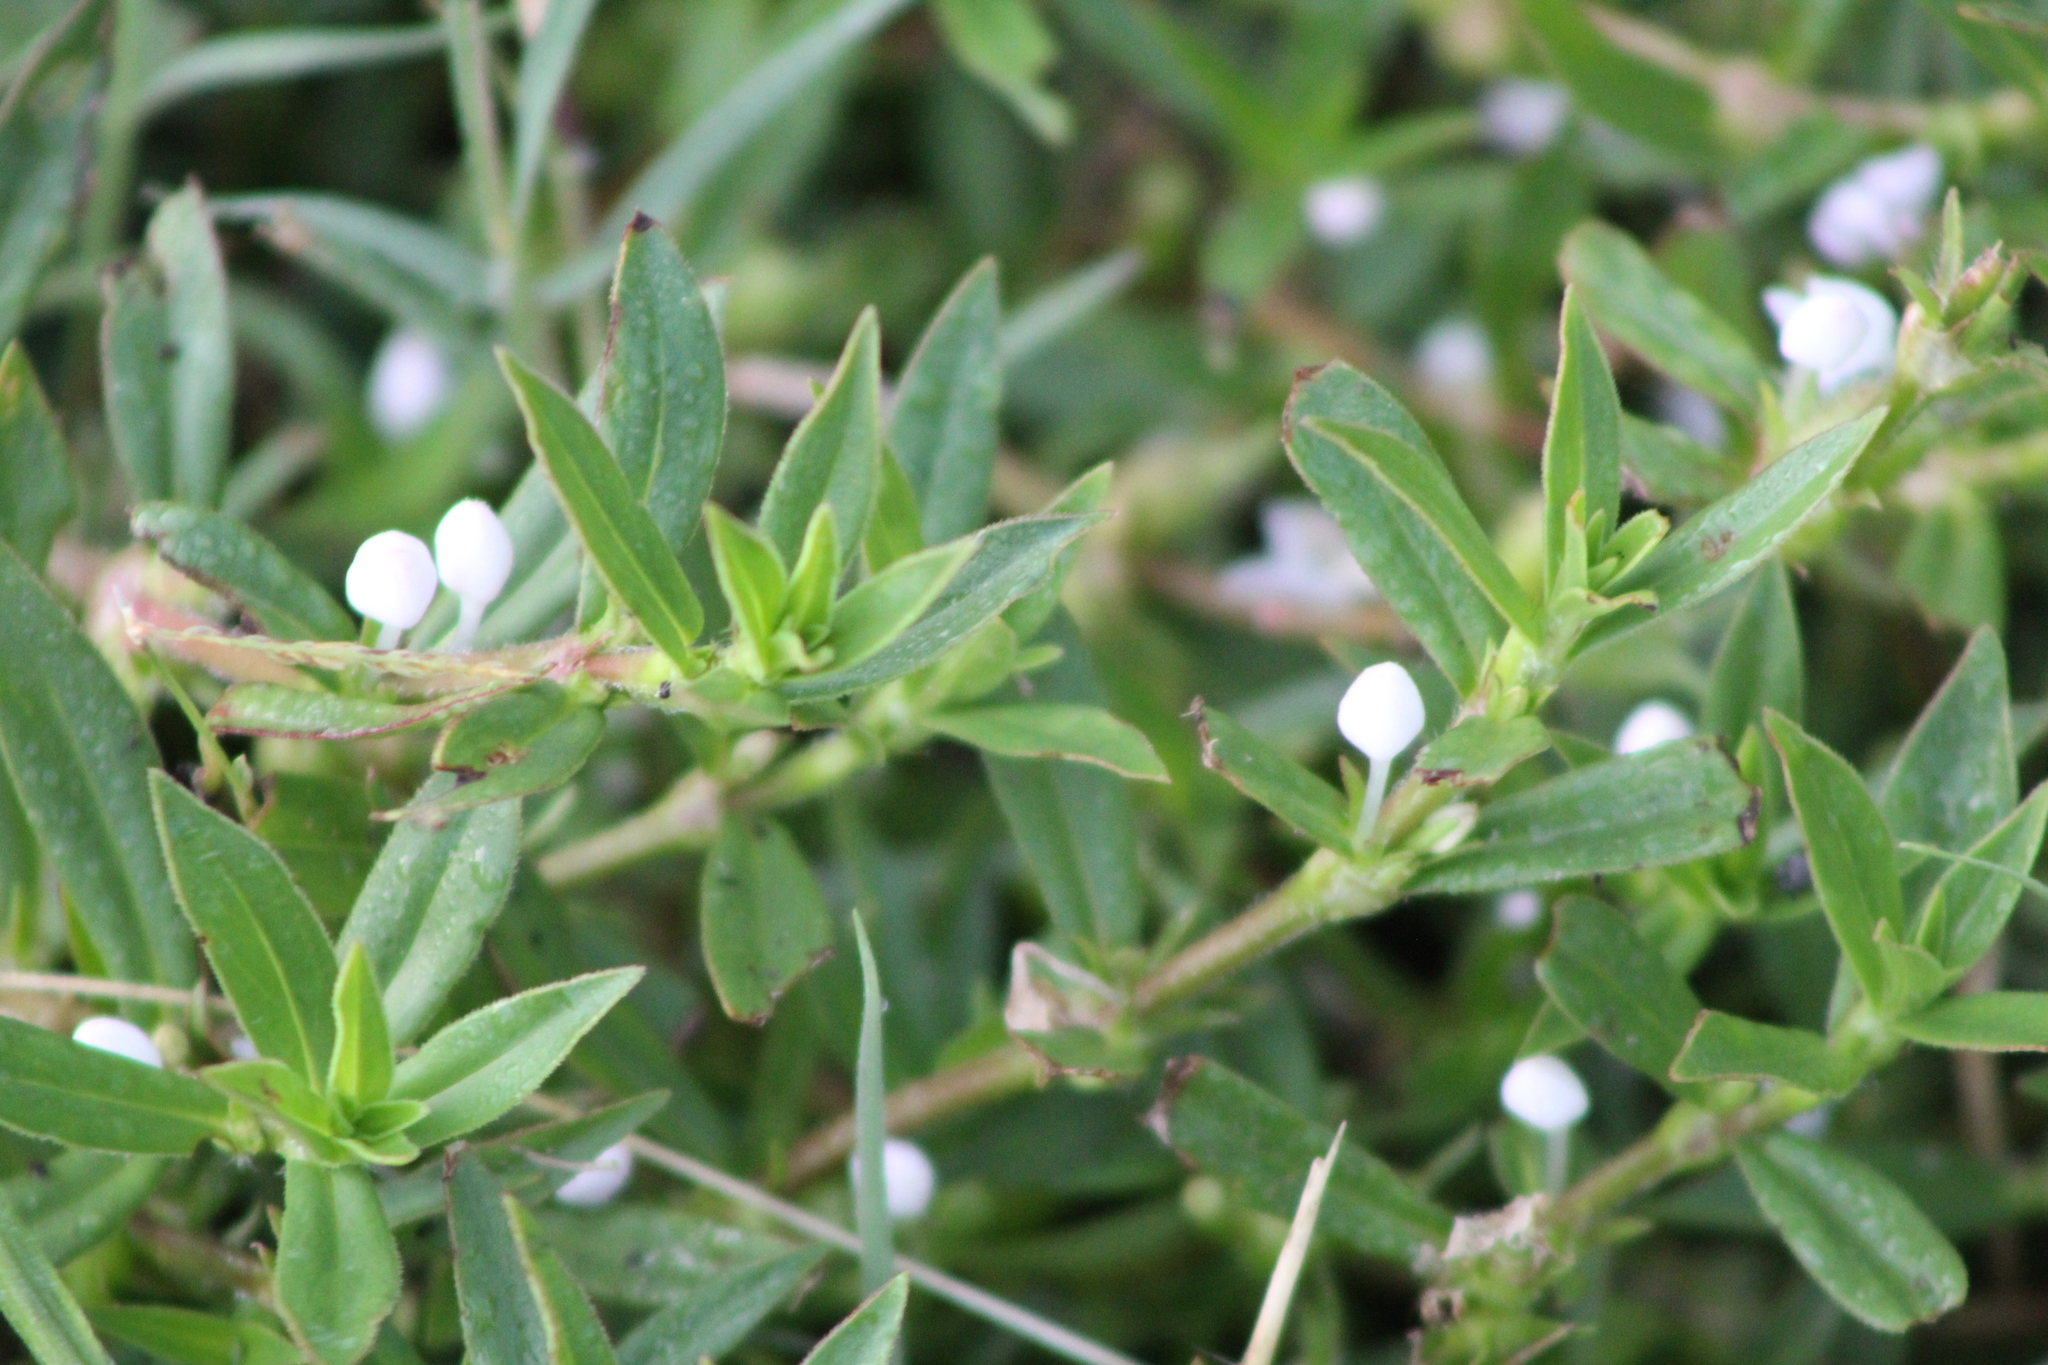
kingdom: Plantae
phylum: Tracheophyta
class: Magnoliopsida
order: Gentianales
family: Rubiaceae
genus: Diodia
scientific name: Diodia virginiana
